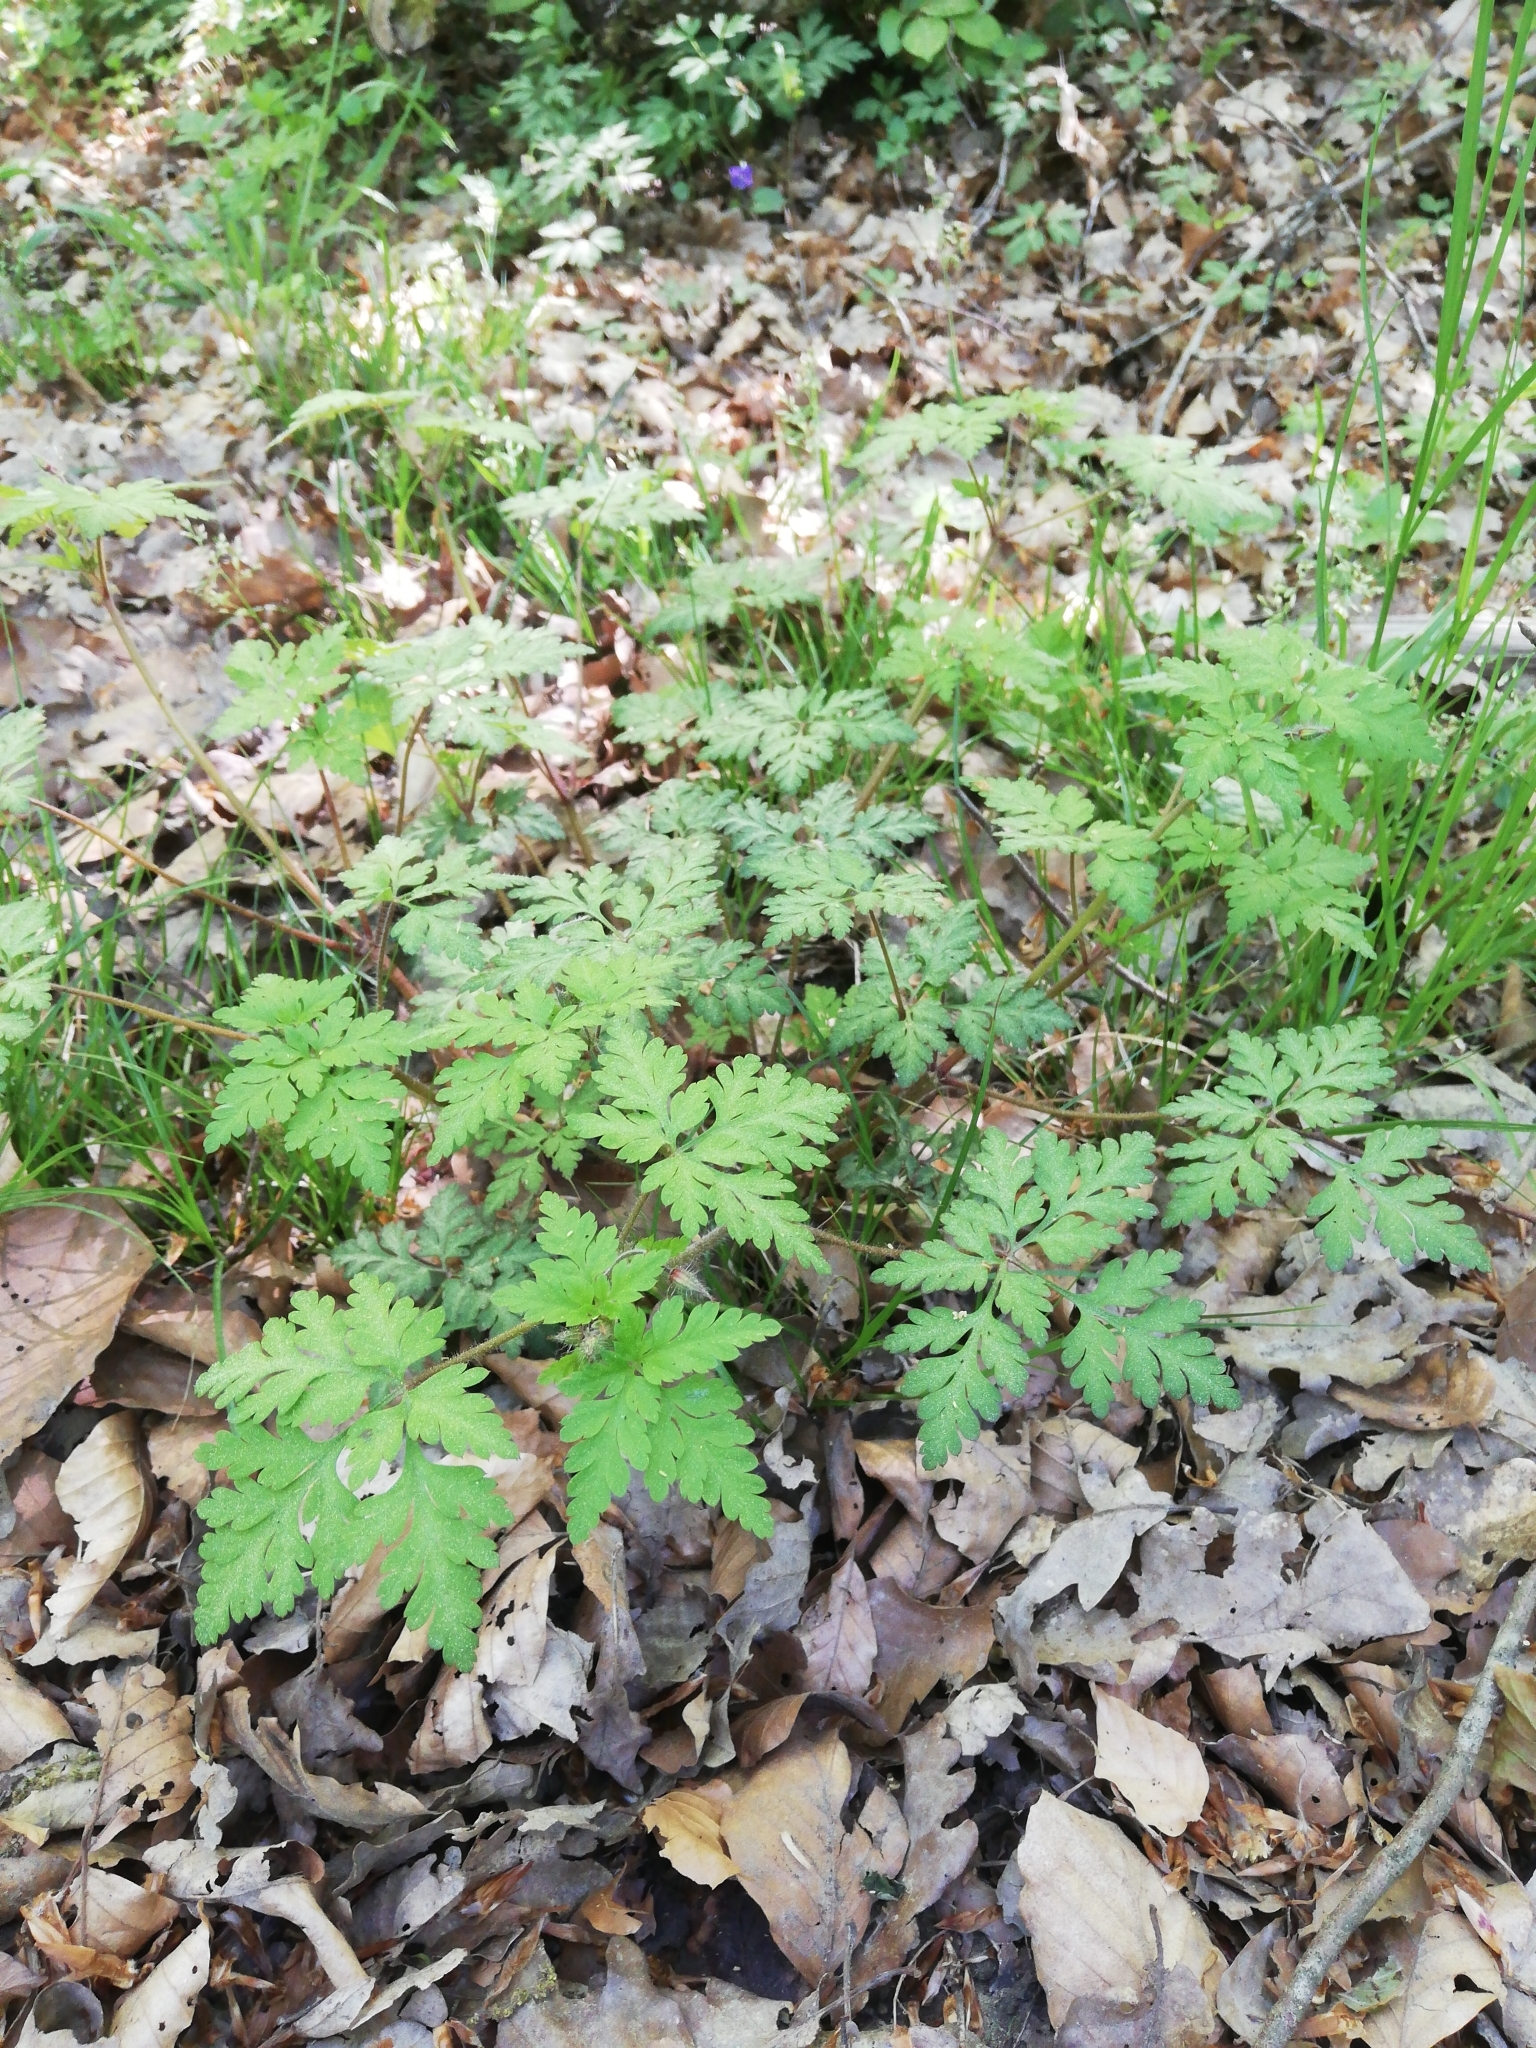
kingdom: Plantae
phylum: Tracheophyta
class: Magnoliopsida
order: Geraniales
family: Geraniaceae
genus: Geranium
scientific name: Geranium robertianum
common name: Herb-robert
